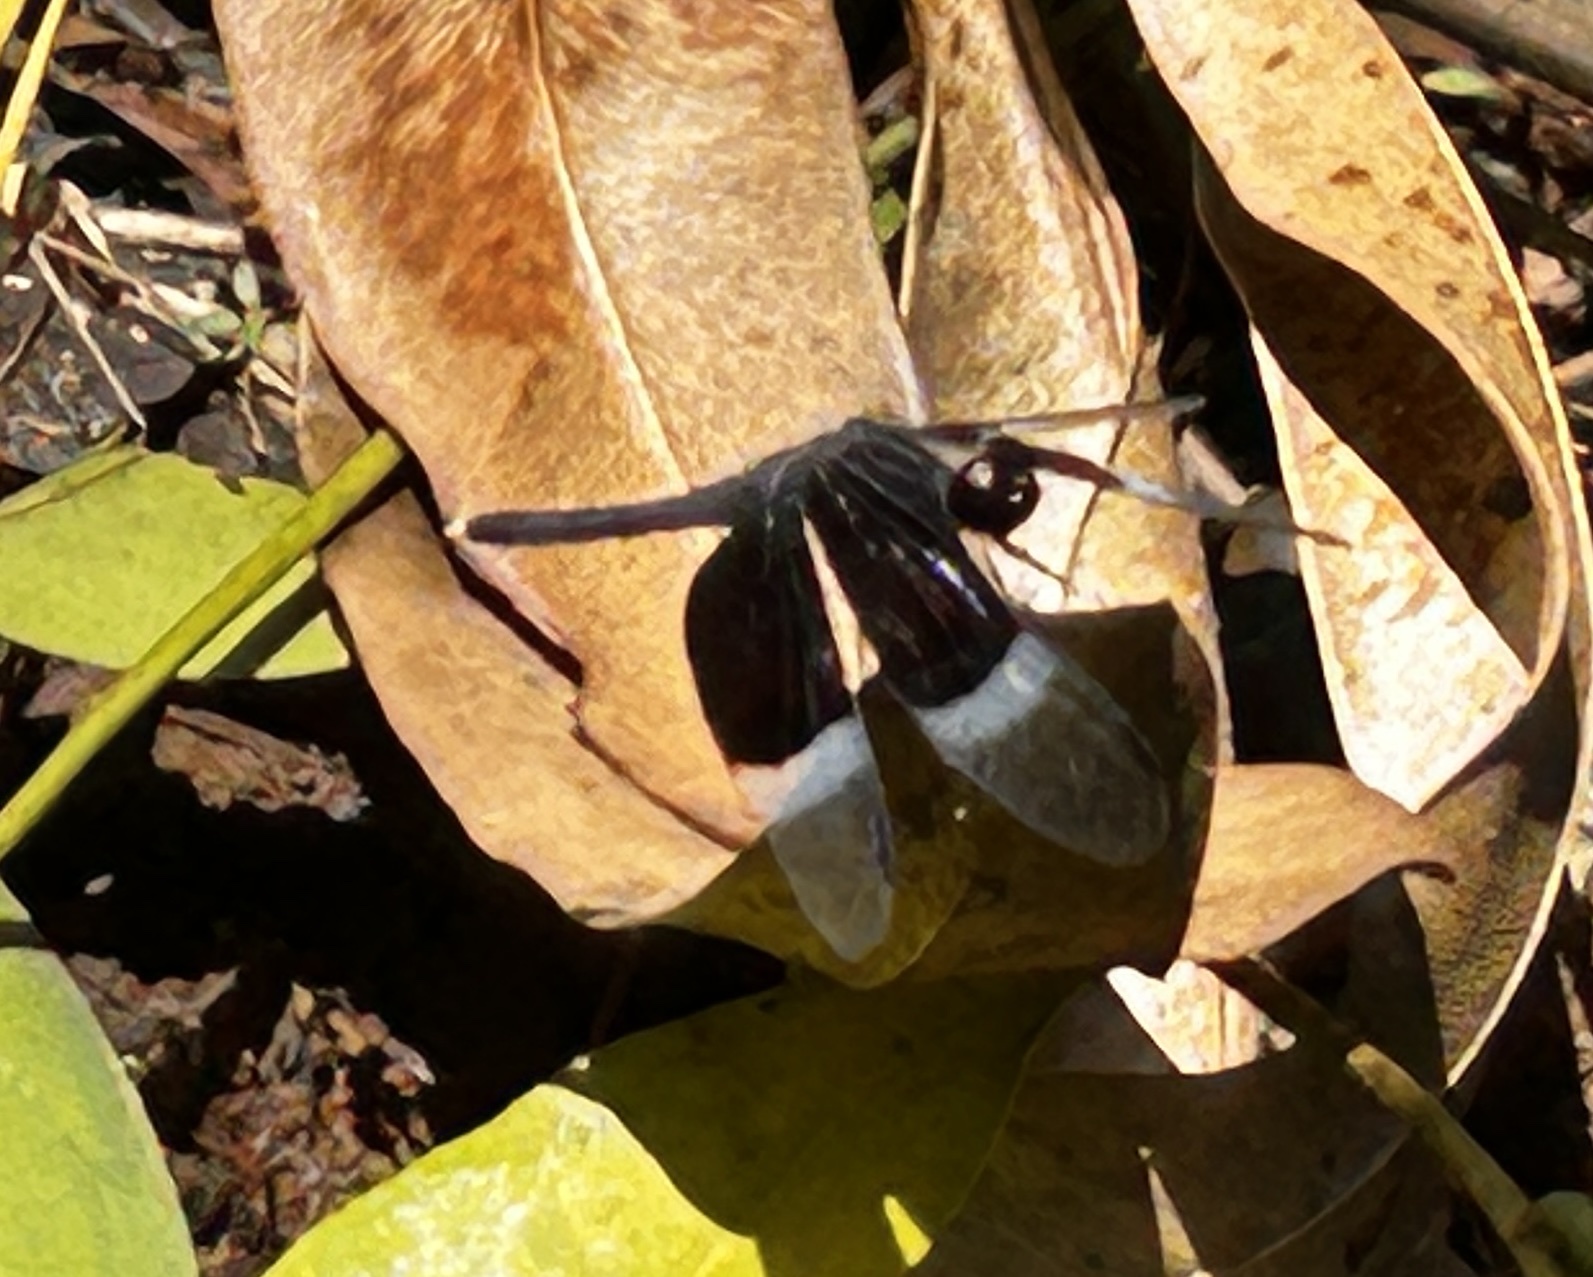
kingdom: Animalia
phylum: Arthropoda
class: Insecta
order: Odonata
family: Libellulidae
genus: Neurothemis
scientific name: Neurothemis tullia
